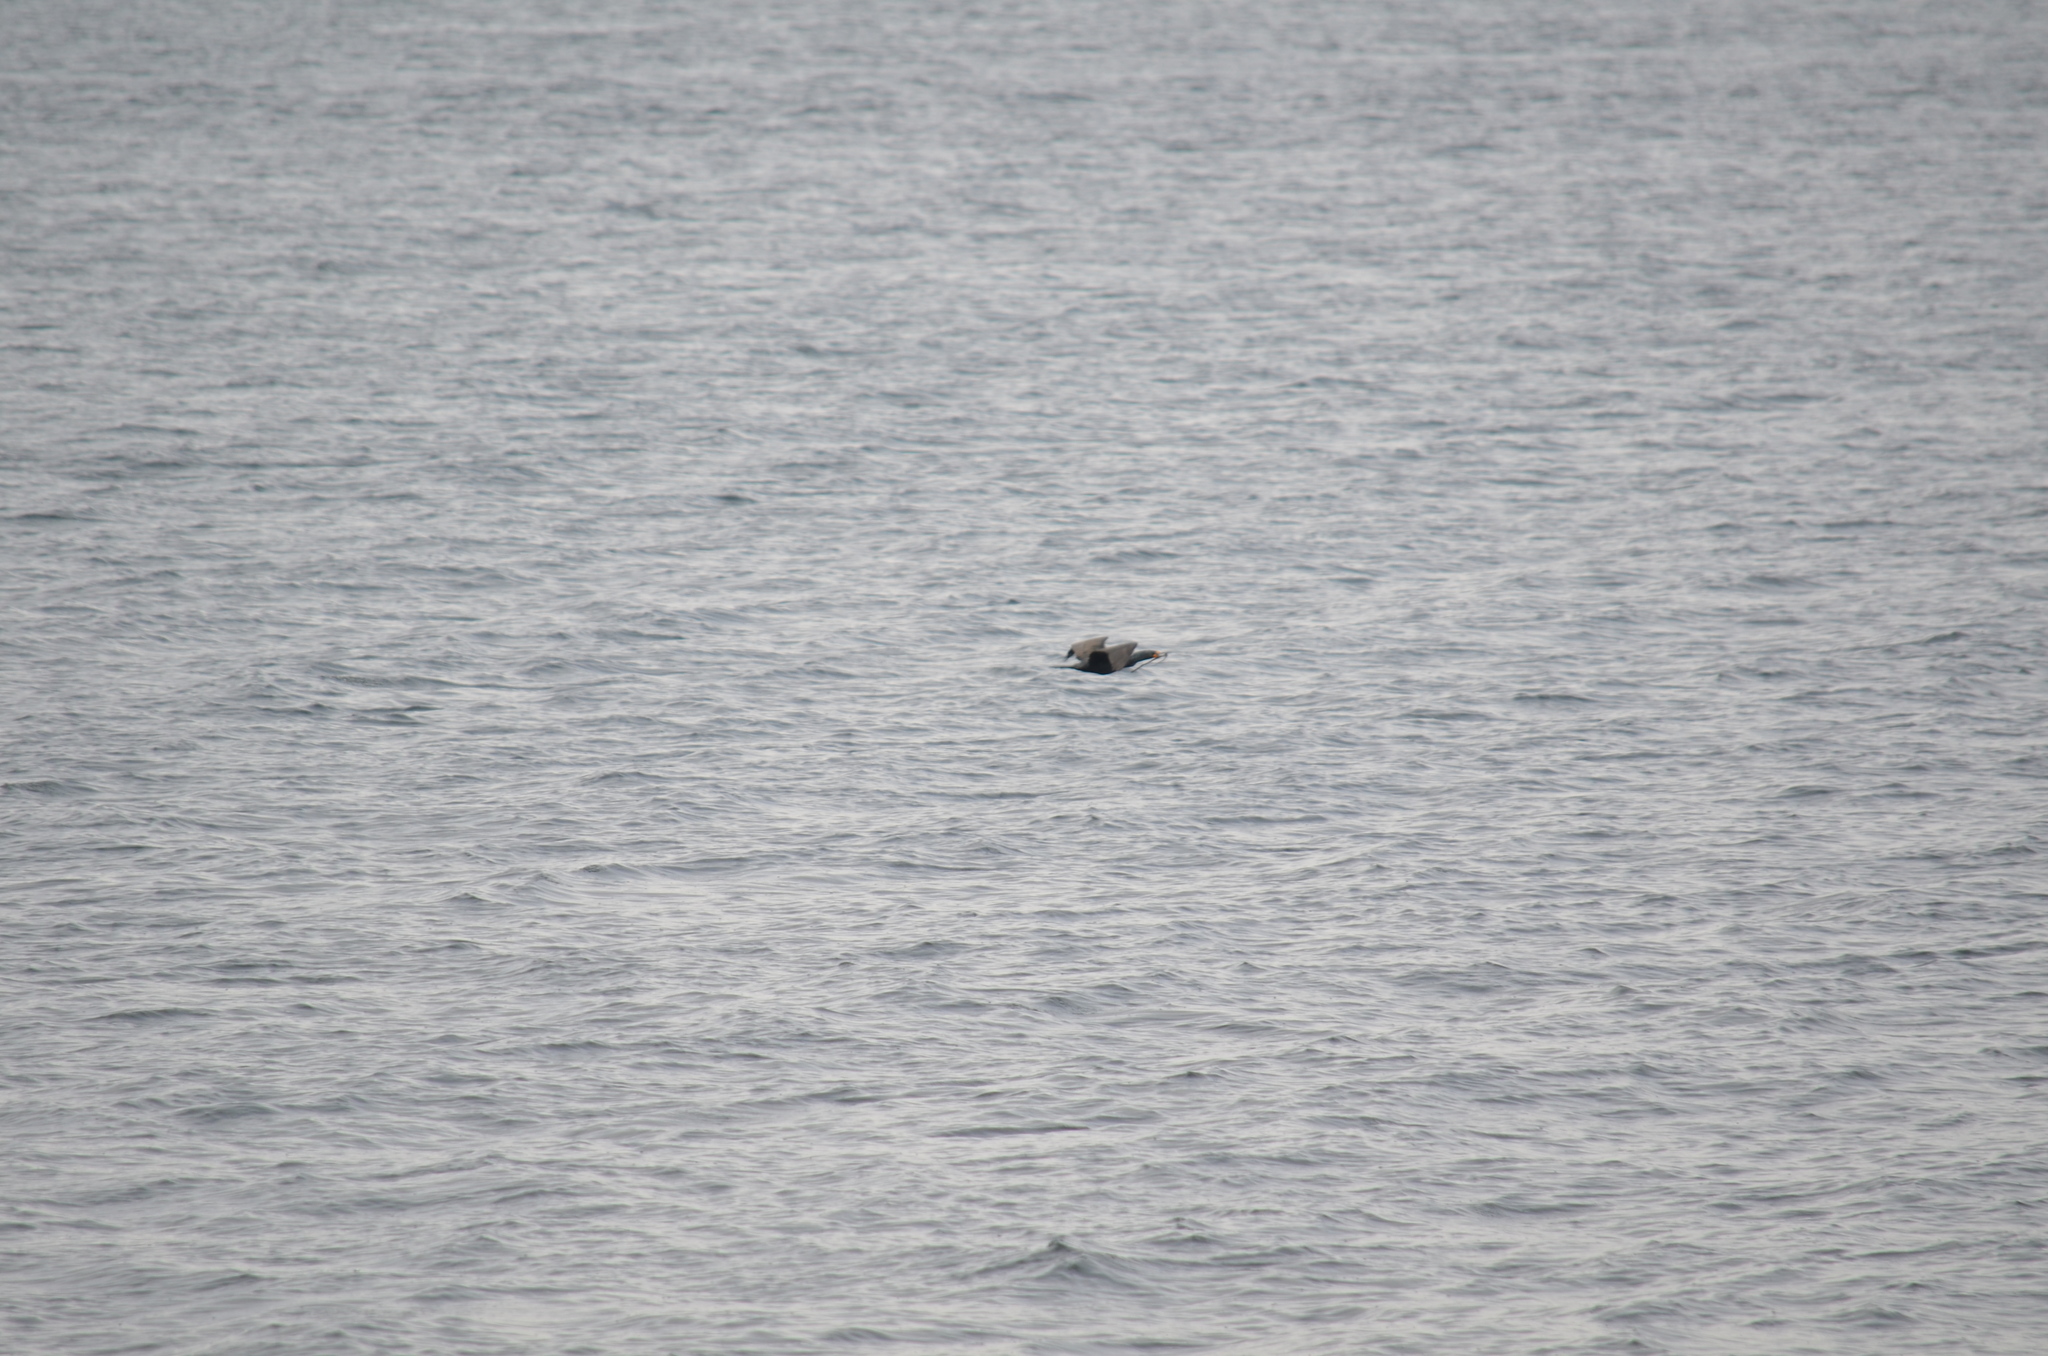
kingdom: Animalia
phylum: Chordata
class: Aves
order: Suliformes
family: Phalacrocoracidae
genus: Phalacrocorax
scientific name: Phalacrocorax auritus
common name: Double-crested cormorant
